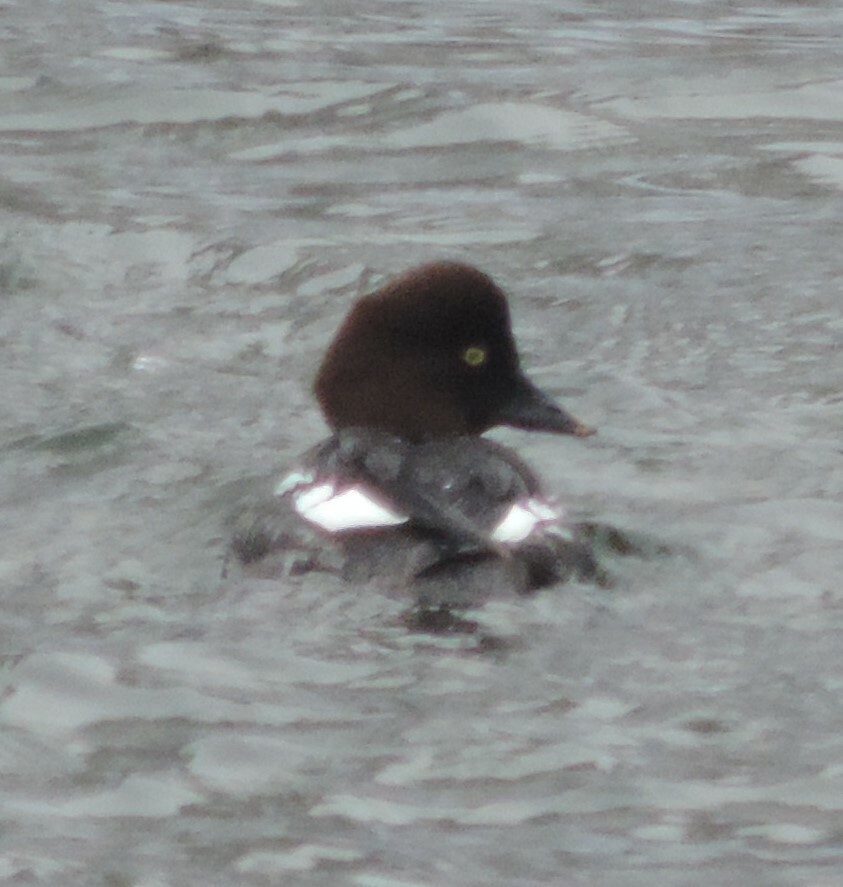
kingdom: Animalia
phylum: Chordata
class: Aves
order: Anseriformes
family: Anatidae
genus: Bucephala
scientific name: Bucephala clangula
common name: Common goldeneye
